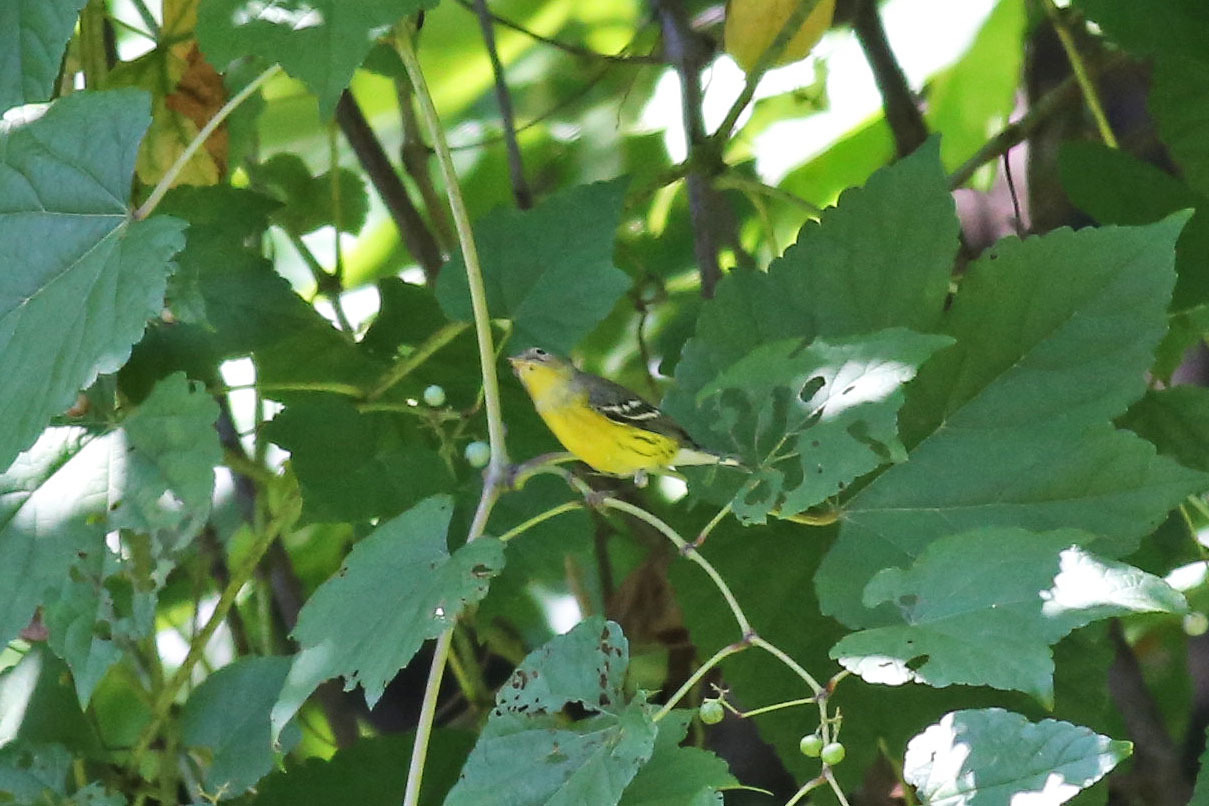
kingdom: Animalia
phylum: Chordata
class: Aves
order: Passeriformes
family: Parulidae
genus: Setophaga
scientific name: Setophaga magnolia
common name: Magnolia warbler
